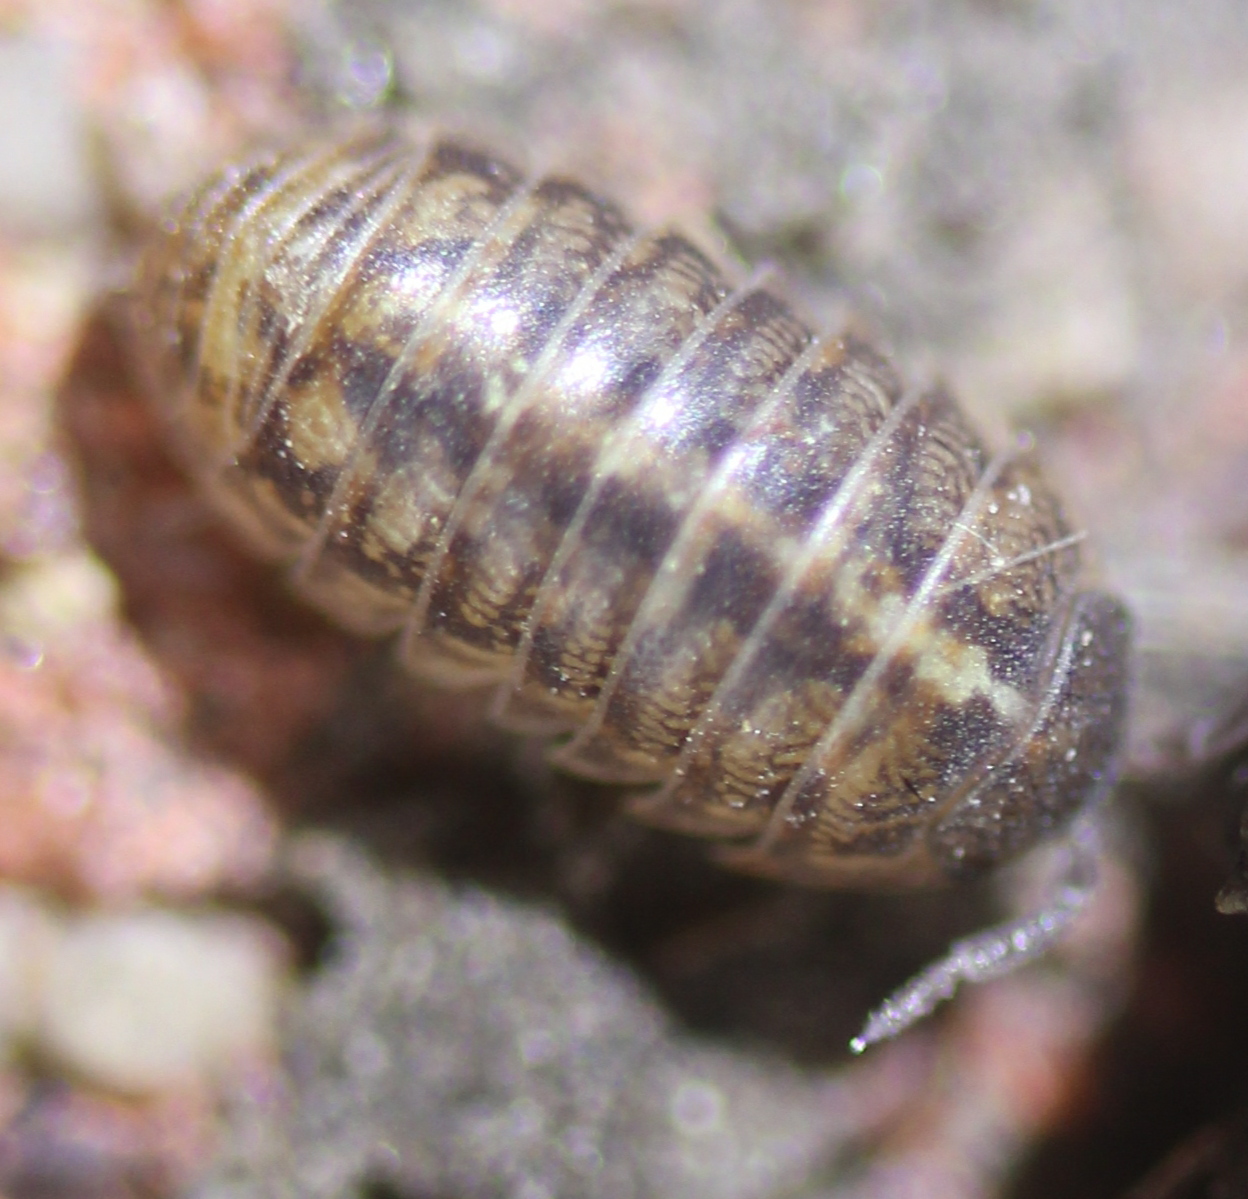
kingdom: Animalia
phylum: Arthropoda
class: Malacostraca
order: Isopoda
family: Armadillidiidae
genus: Armadillidium
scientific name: Armadillidium vulgare
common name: Common pill woodlouse
